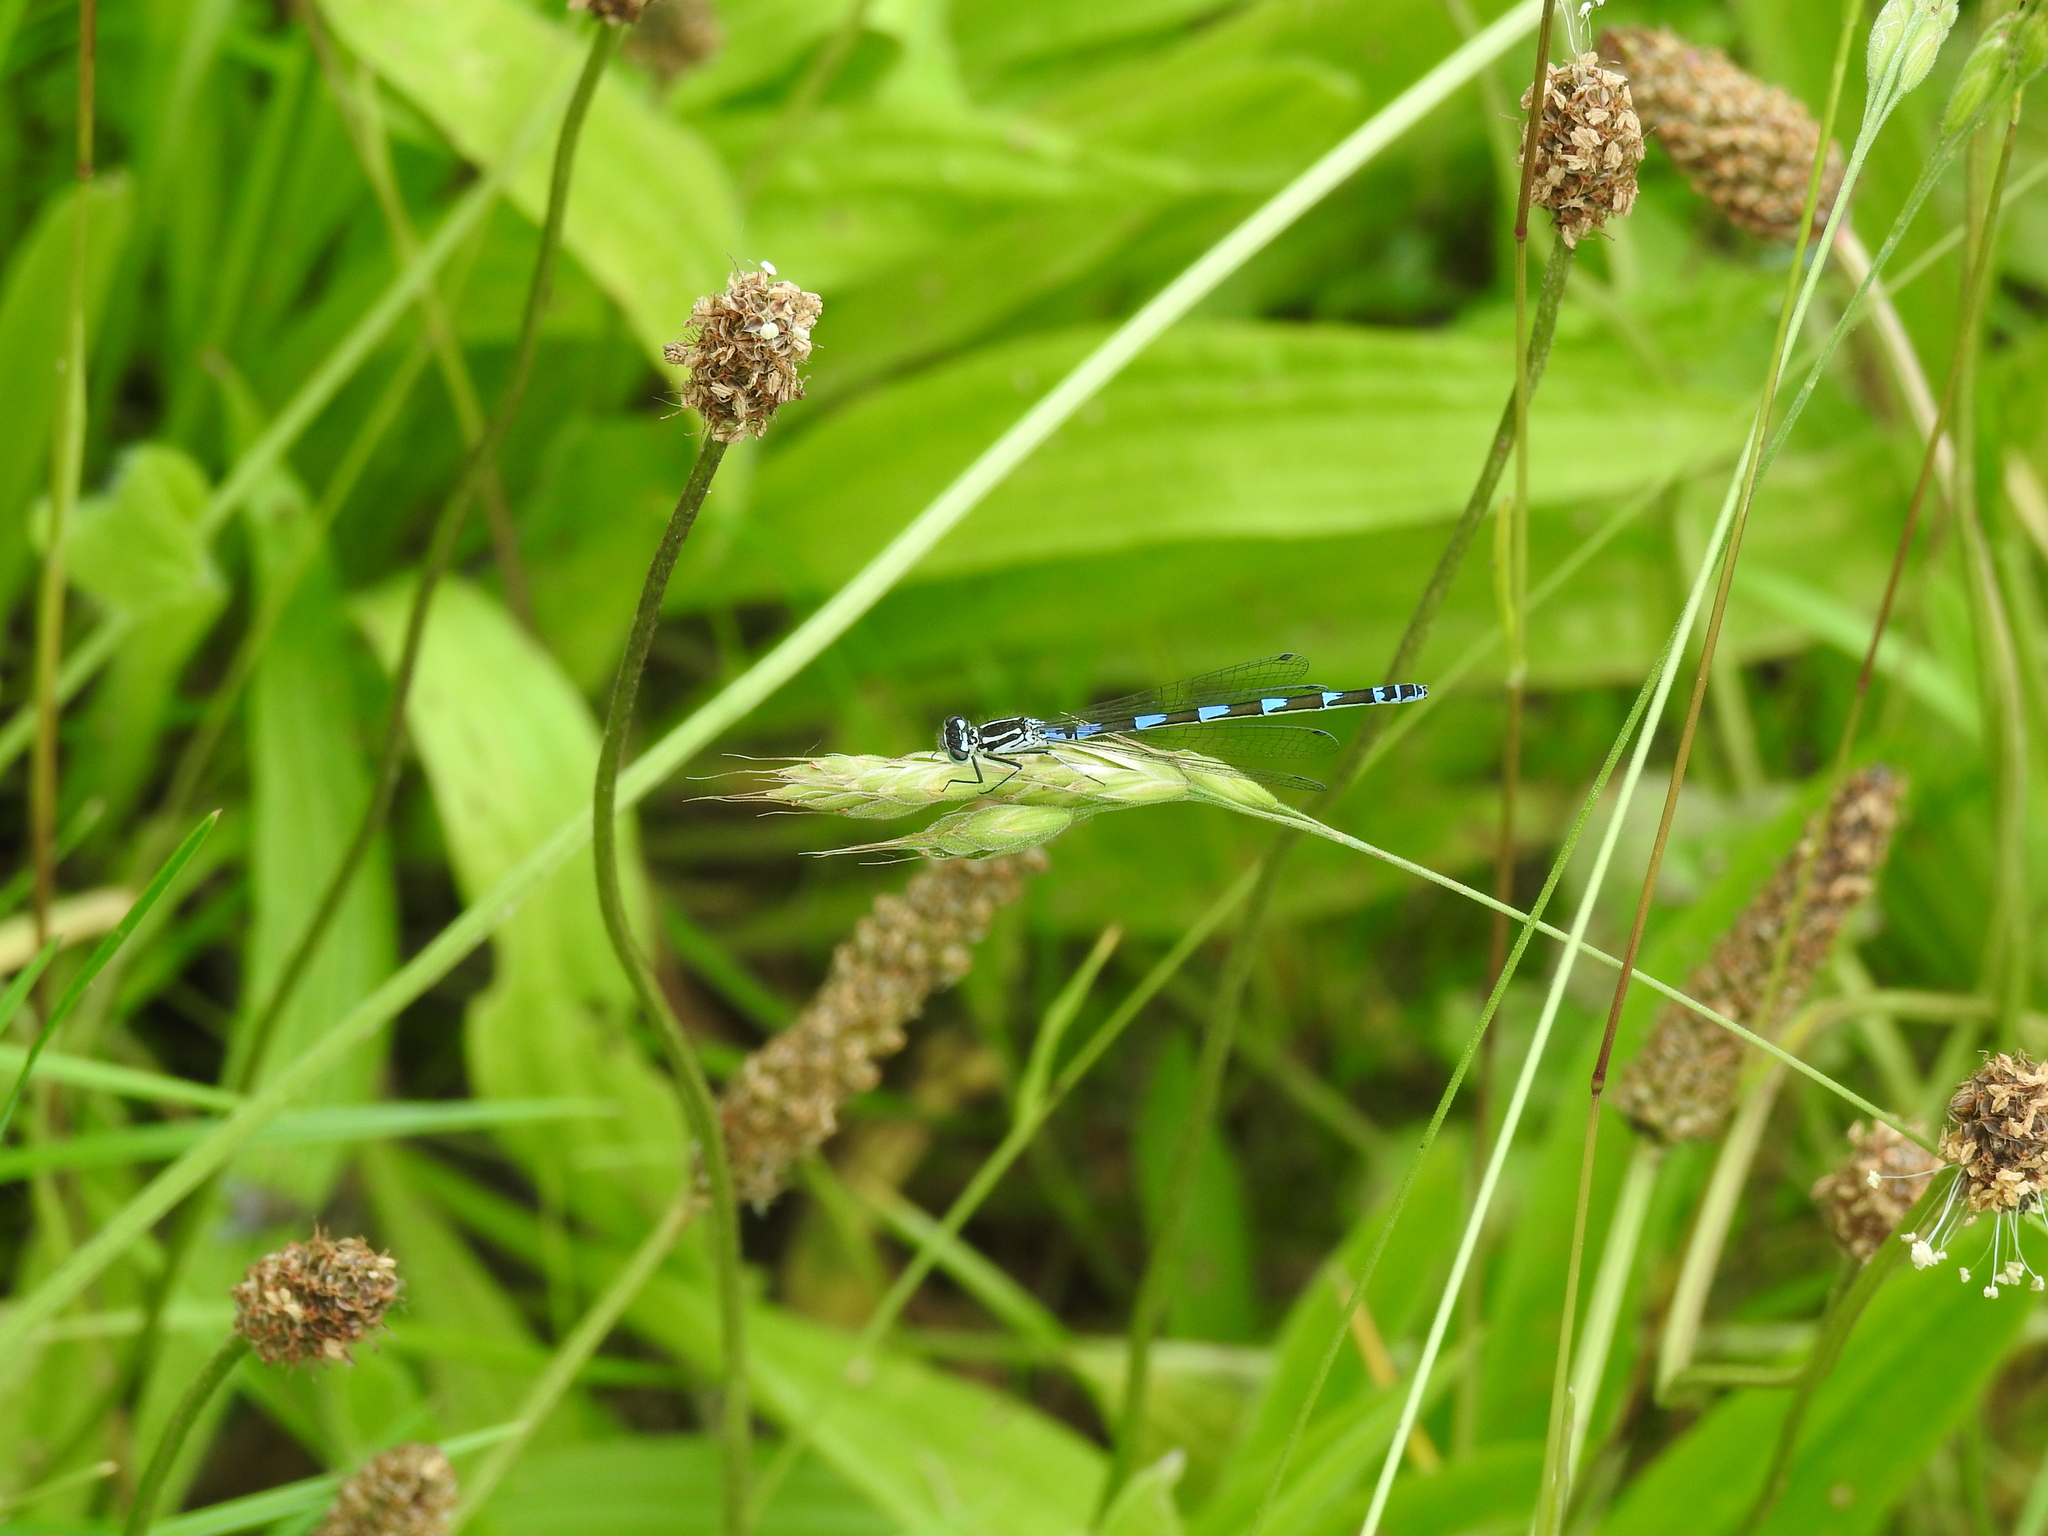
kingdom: Animalia
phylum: Arthropoda
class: Insecta
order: Odonata
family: Coenagrionidae
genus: Coenagrion
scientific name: Coenagrion pulchellum
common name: Variable bluet
